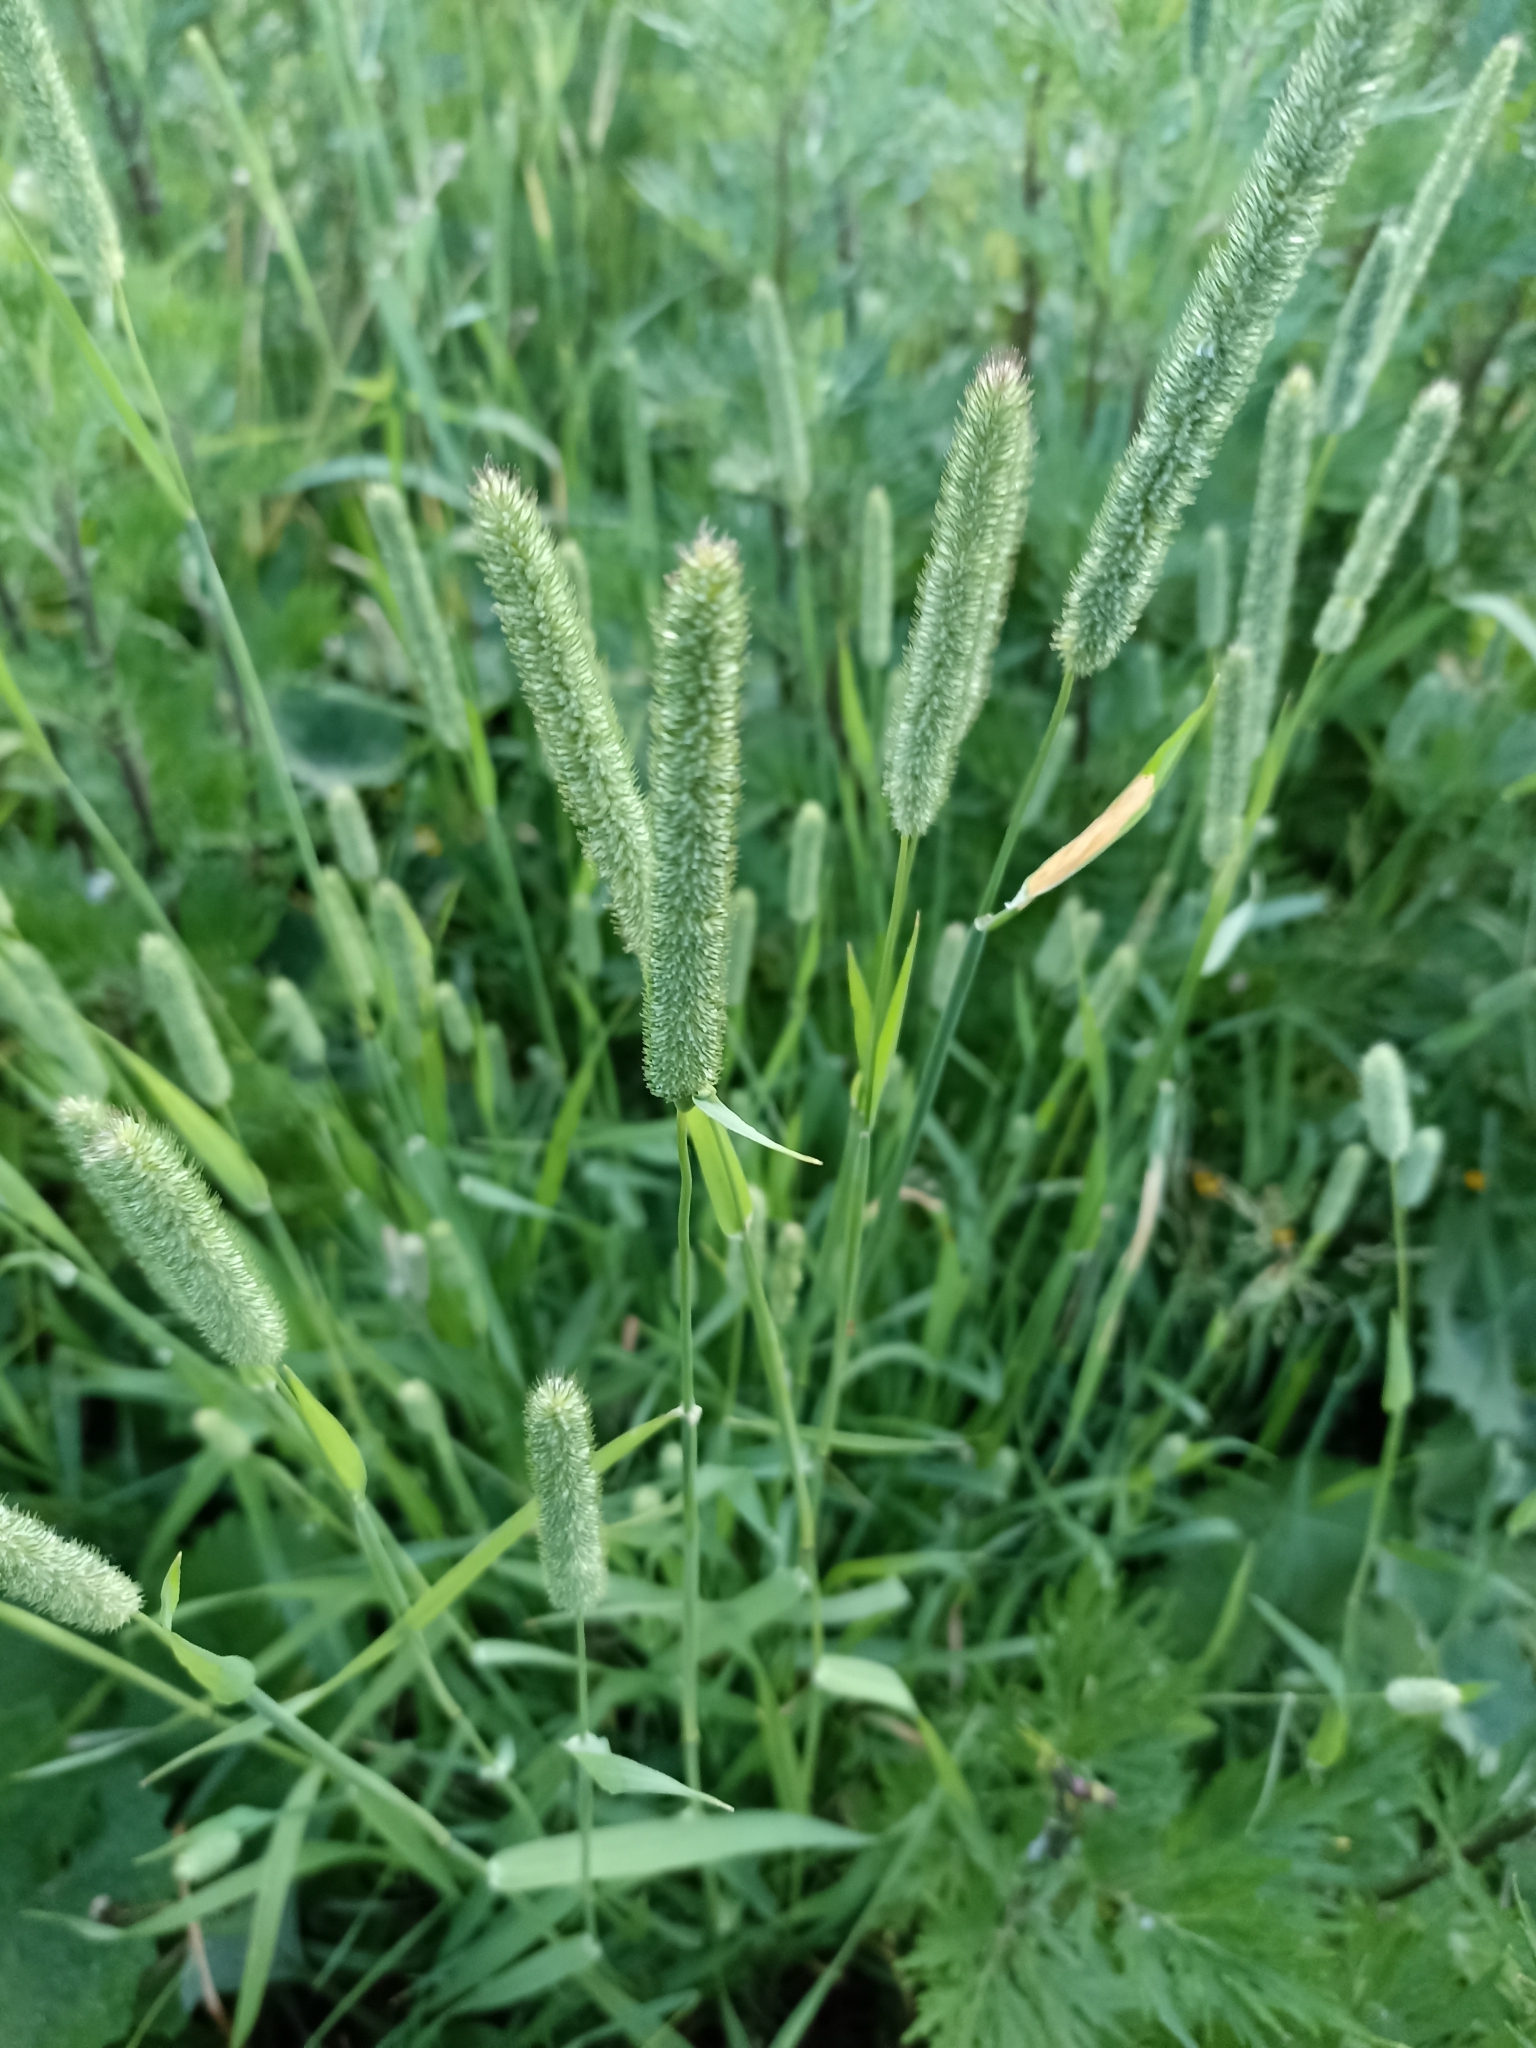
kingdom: Plantae
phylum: Tracheophyta
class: Liliopsida
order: Poales
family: Poaceae
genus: Phleum
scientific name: Phleum pratense
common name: Timothy grass
